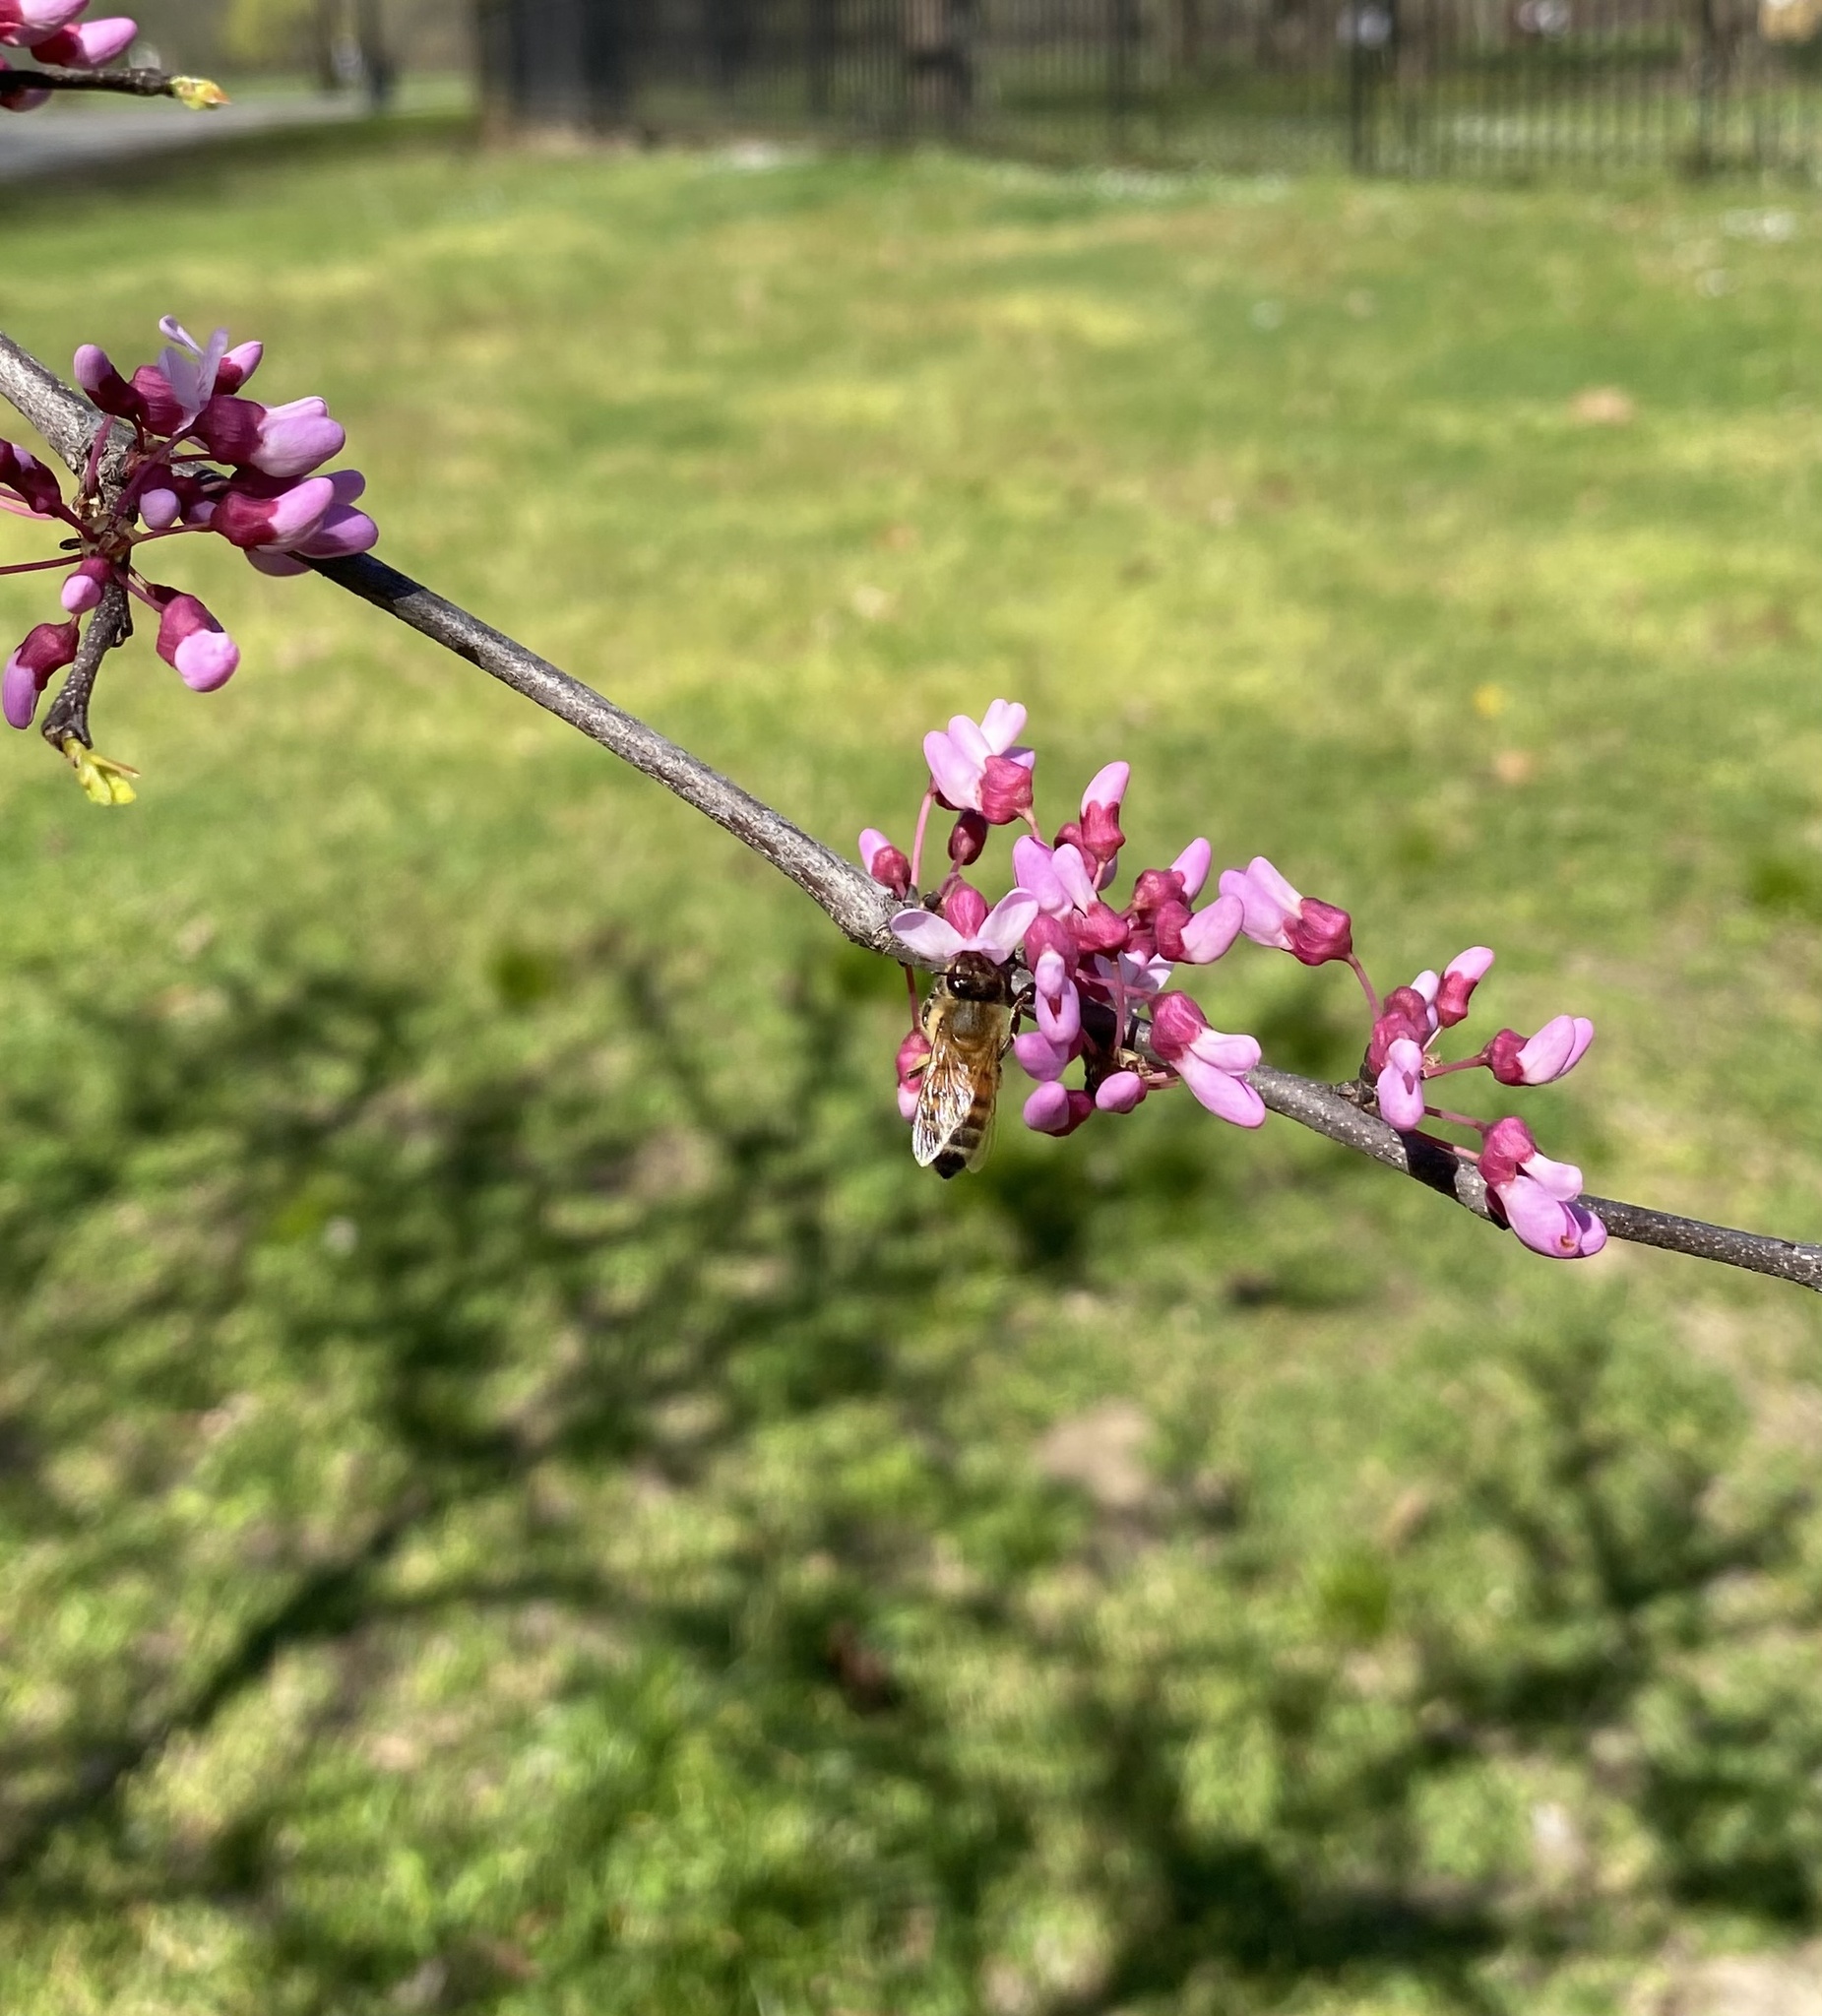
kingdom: Animalia
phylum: Arthropoda
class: Insecta
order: Hymenoptera
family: Apidae
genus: Apis
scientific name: Apis mellifera
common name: Honey bee
